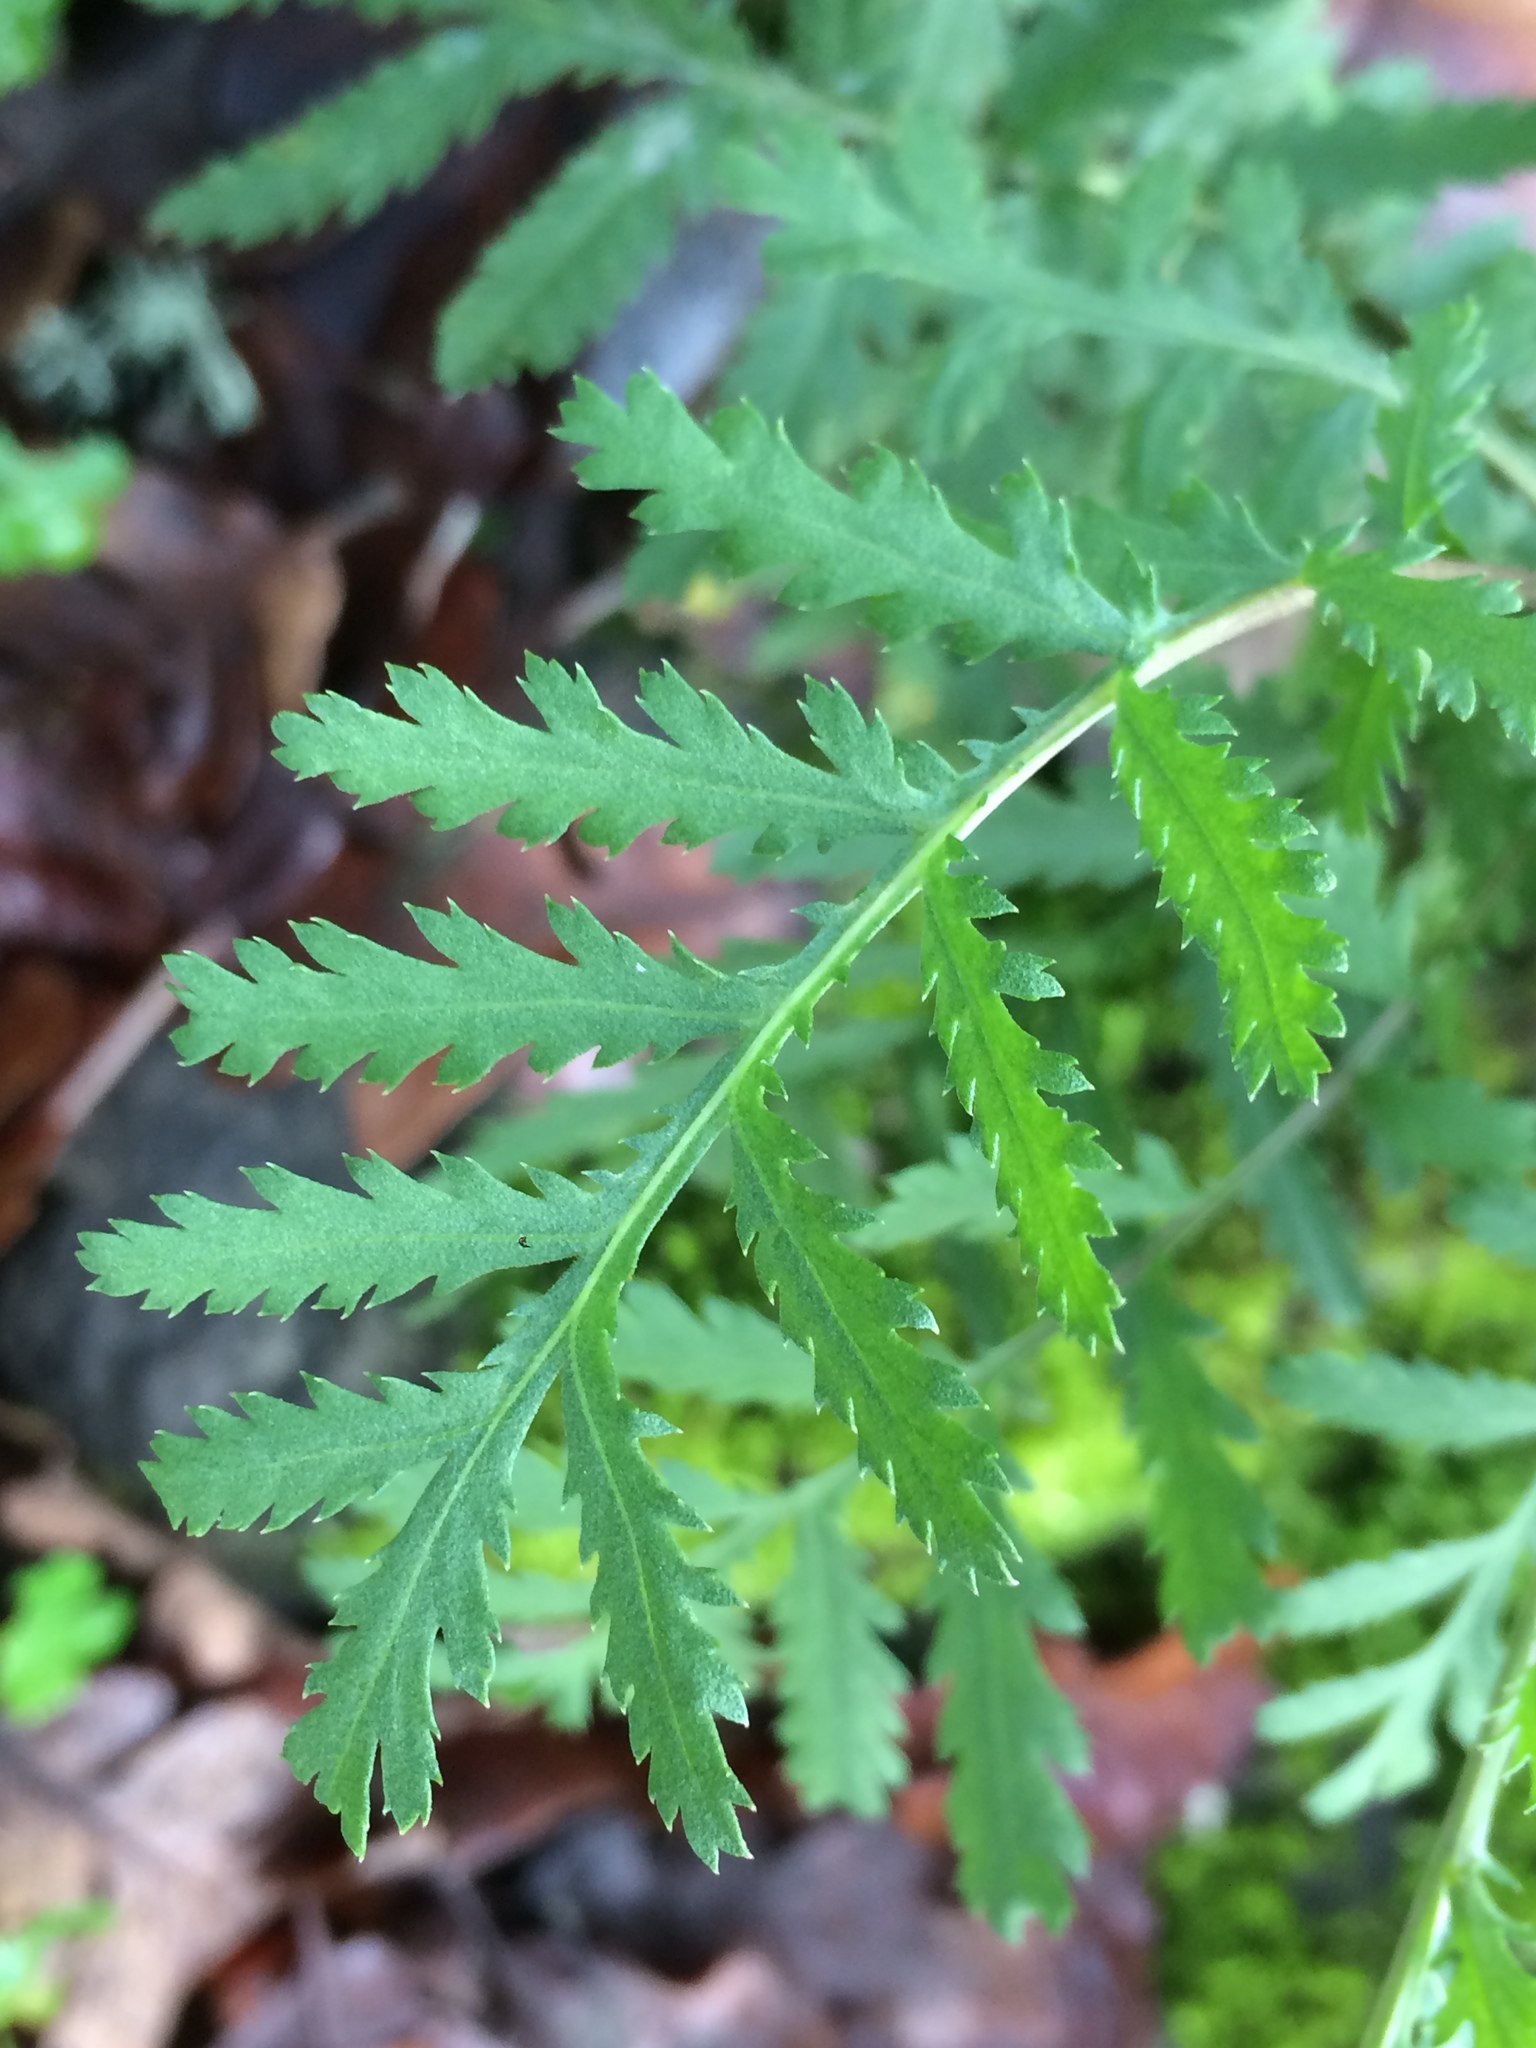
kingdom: Plantae
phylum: Tracheophyta
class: Magnoliopsida
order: Asterales
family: Asteraceae
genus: Tanacetum
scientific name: Tanacetum vulgare
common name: Common tansy
